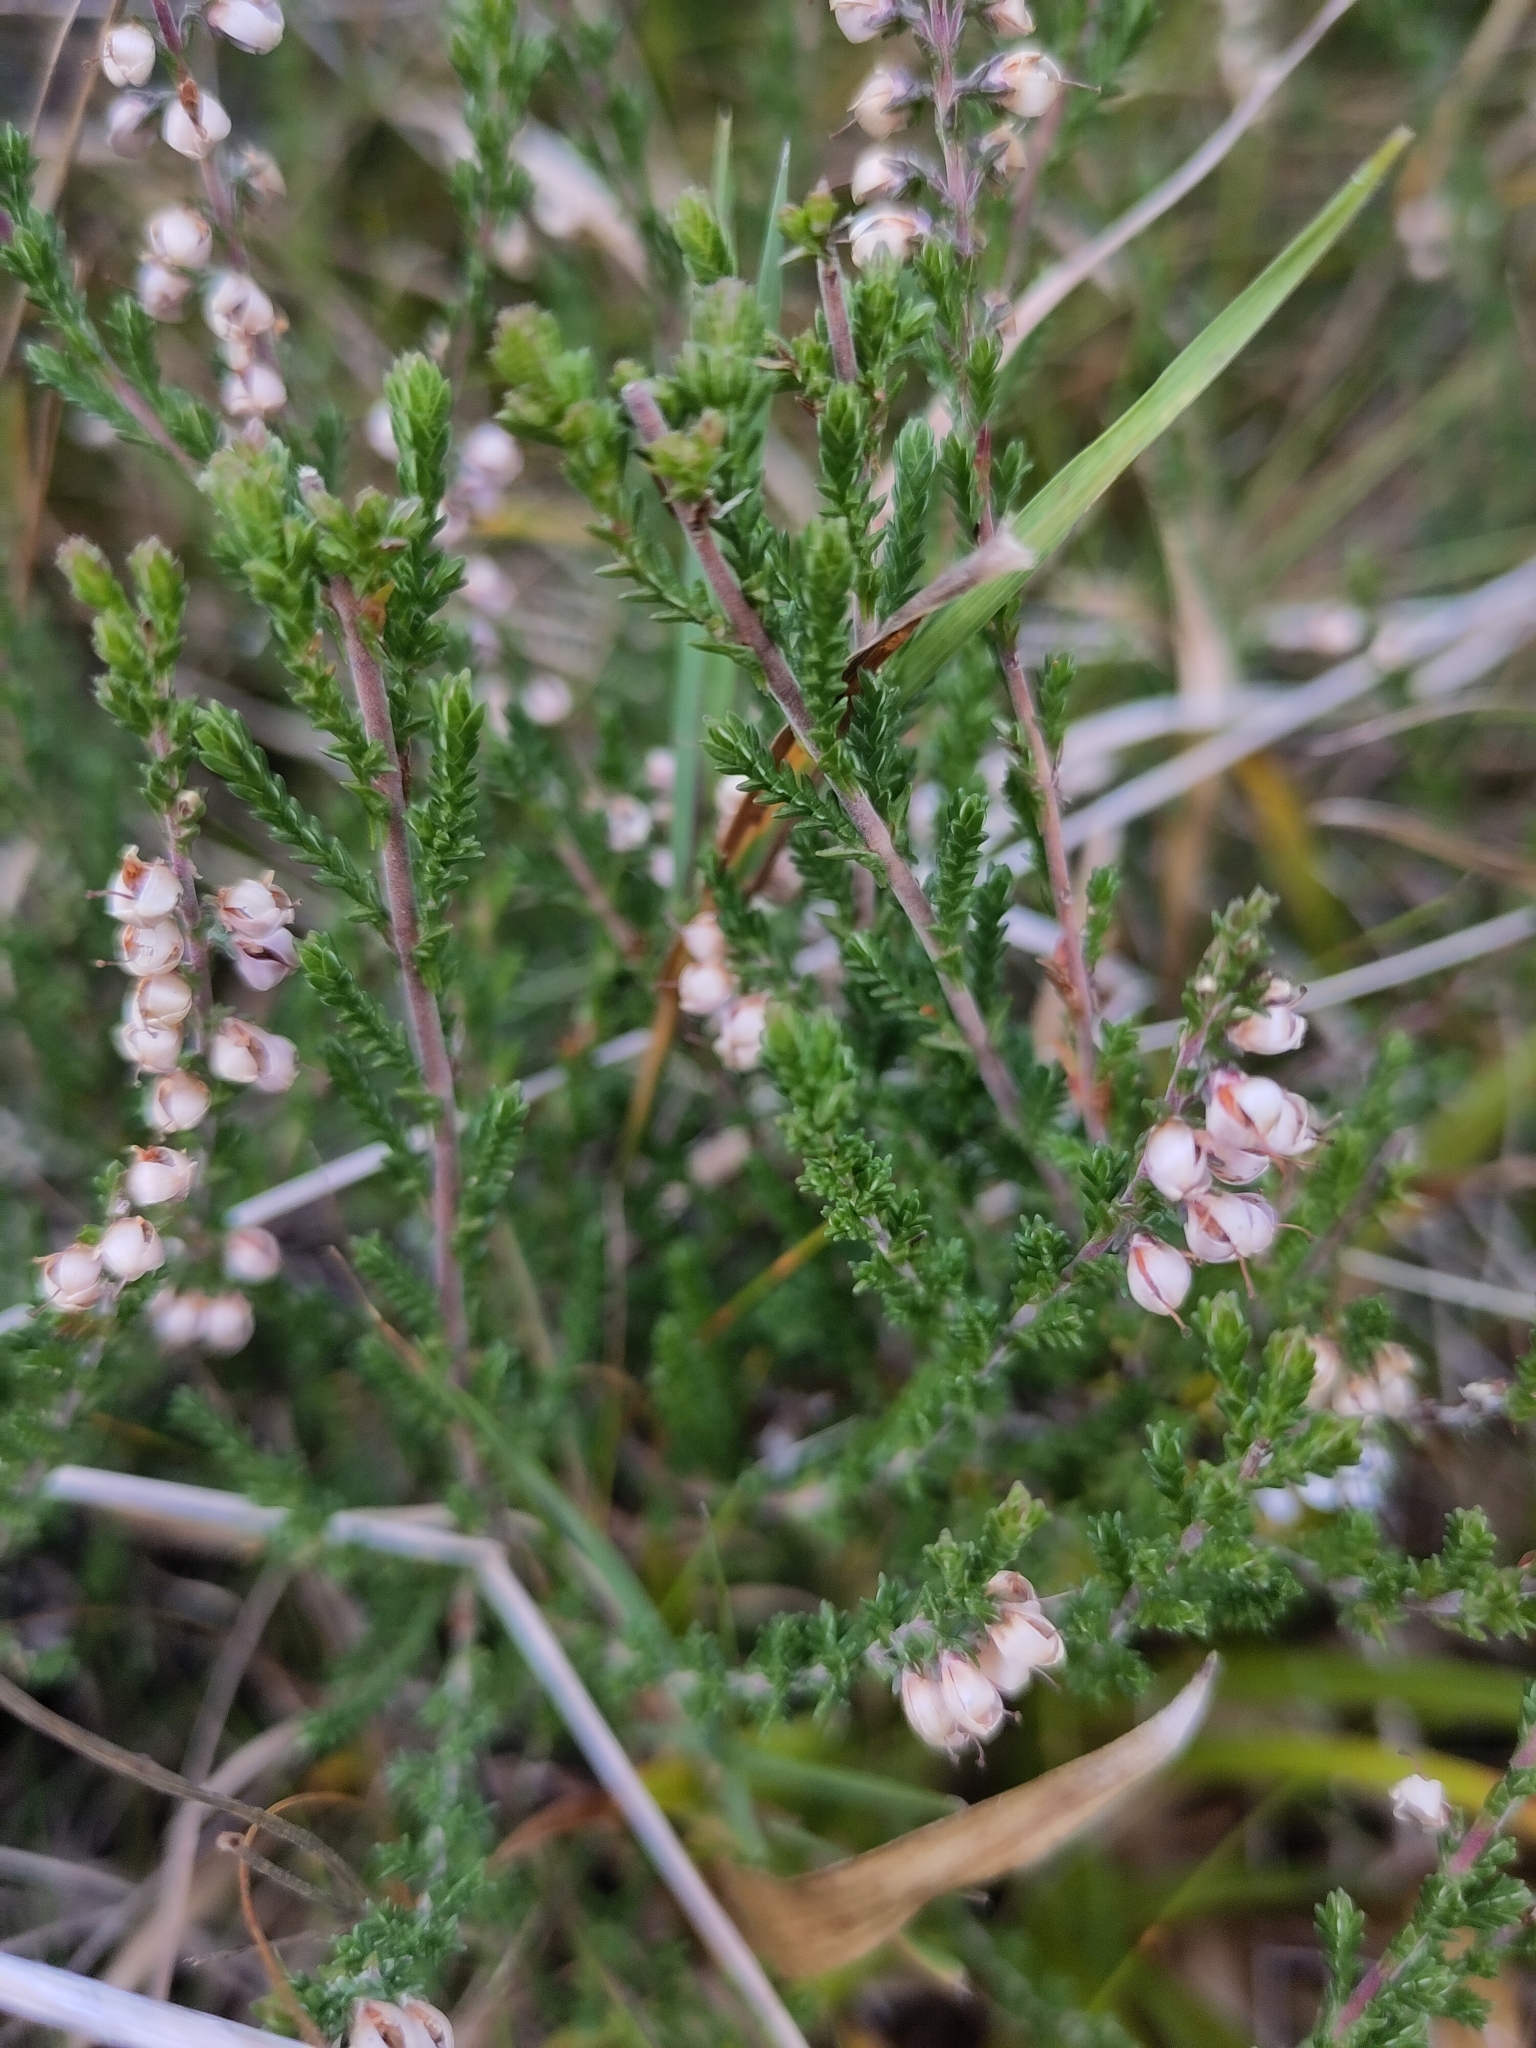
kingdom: Plantae
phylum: Tracheophyta
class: Magnoliopsida
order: Ericales
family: Ericaceae
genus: Calluna
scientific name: Calluna vulgaris
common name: Heather
